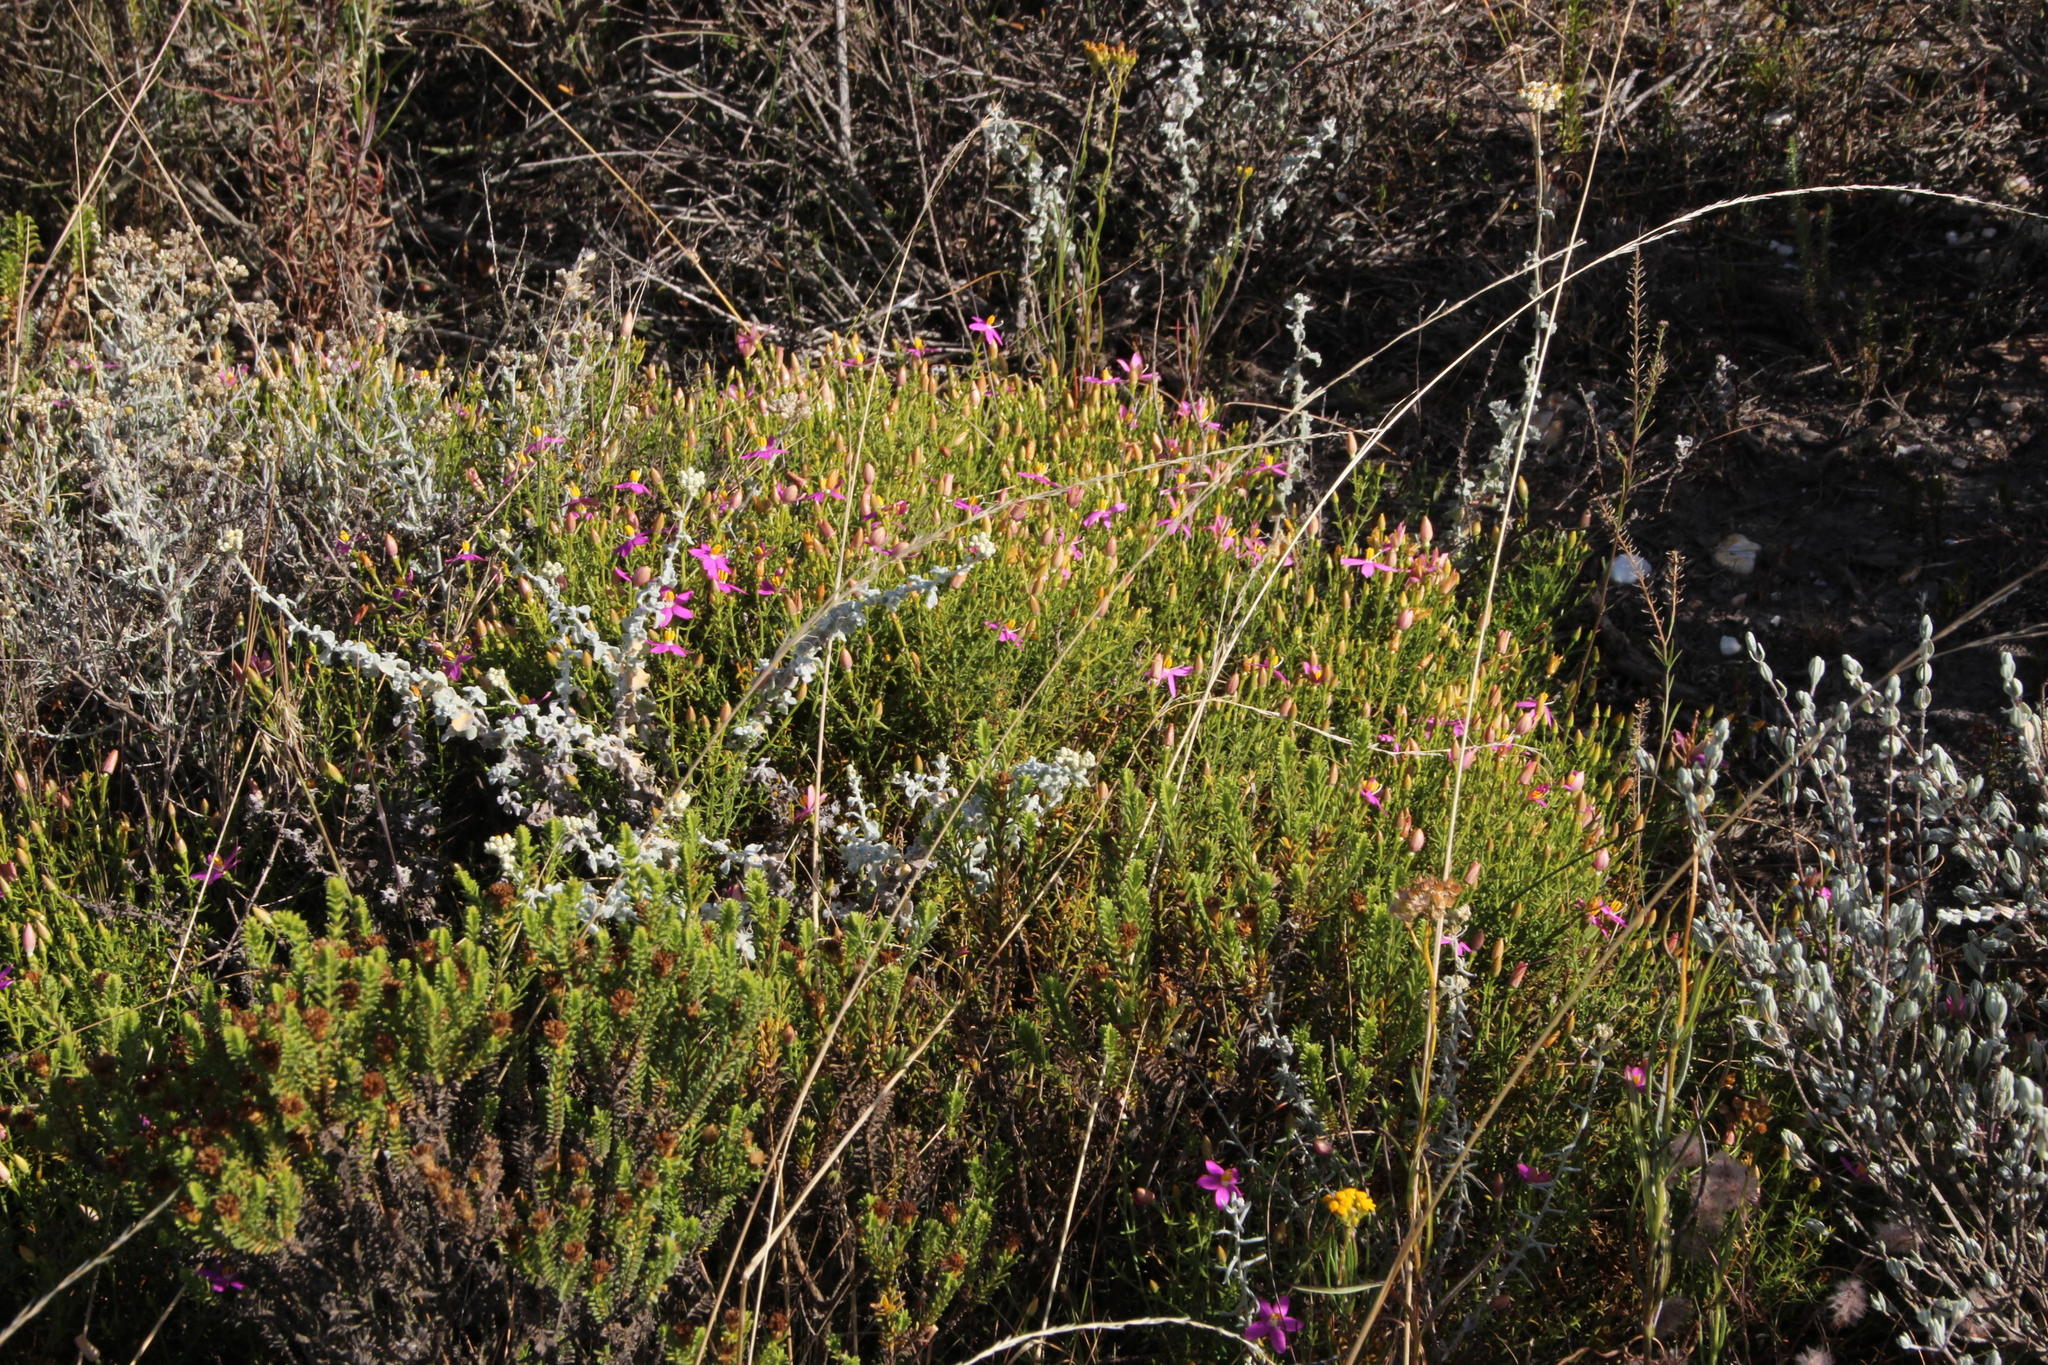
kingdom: Plantae
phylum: Tracheophyta
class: Magnoliopsida
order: Gentianales
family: Gentianaceae
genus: Chironia
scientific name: Chironia baccifera
